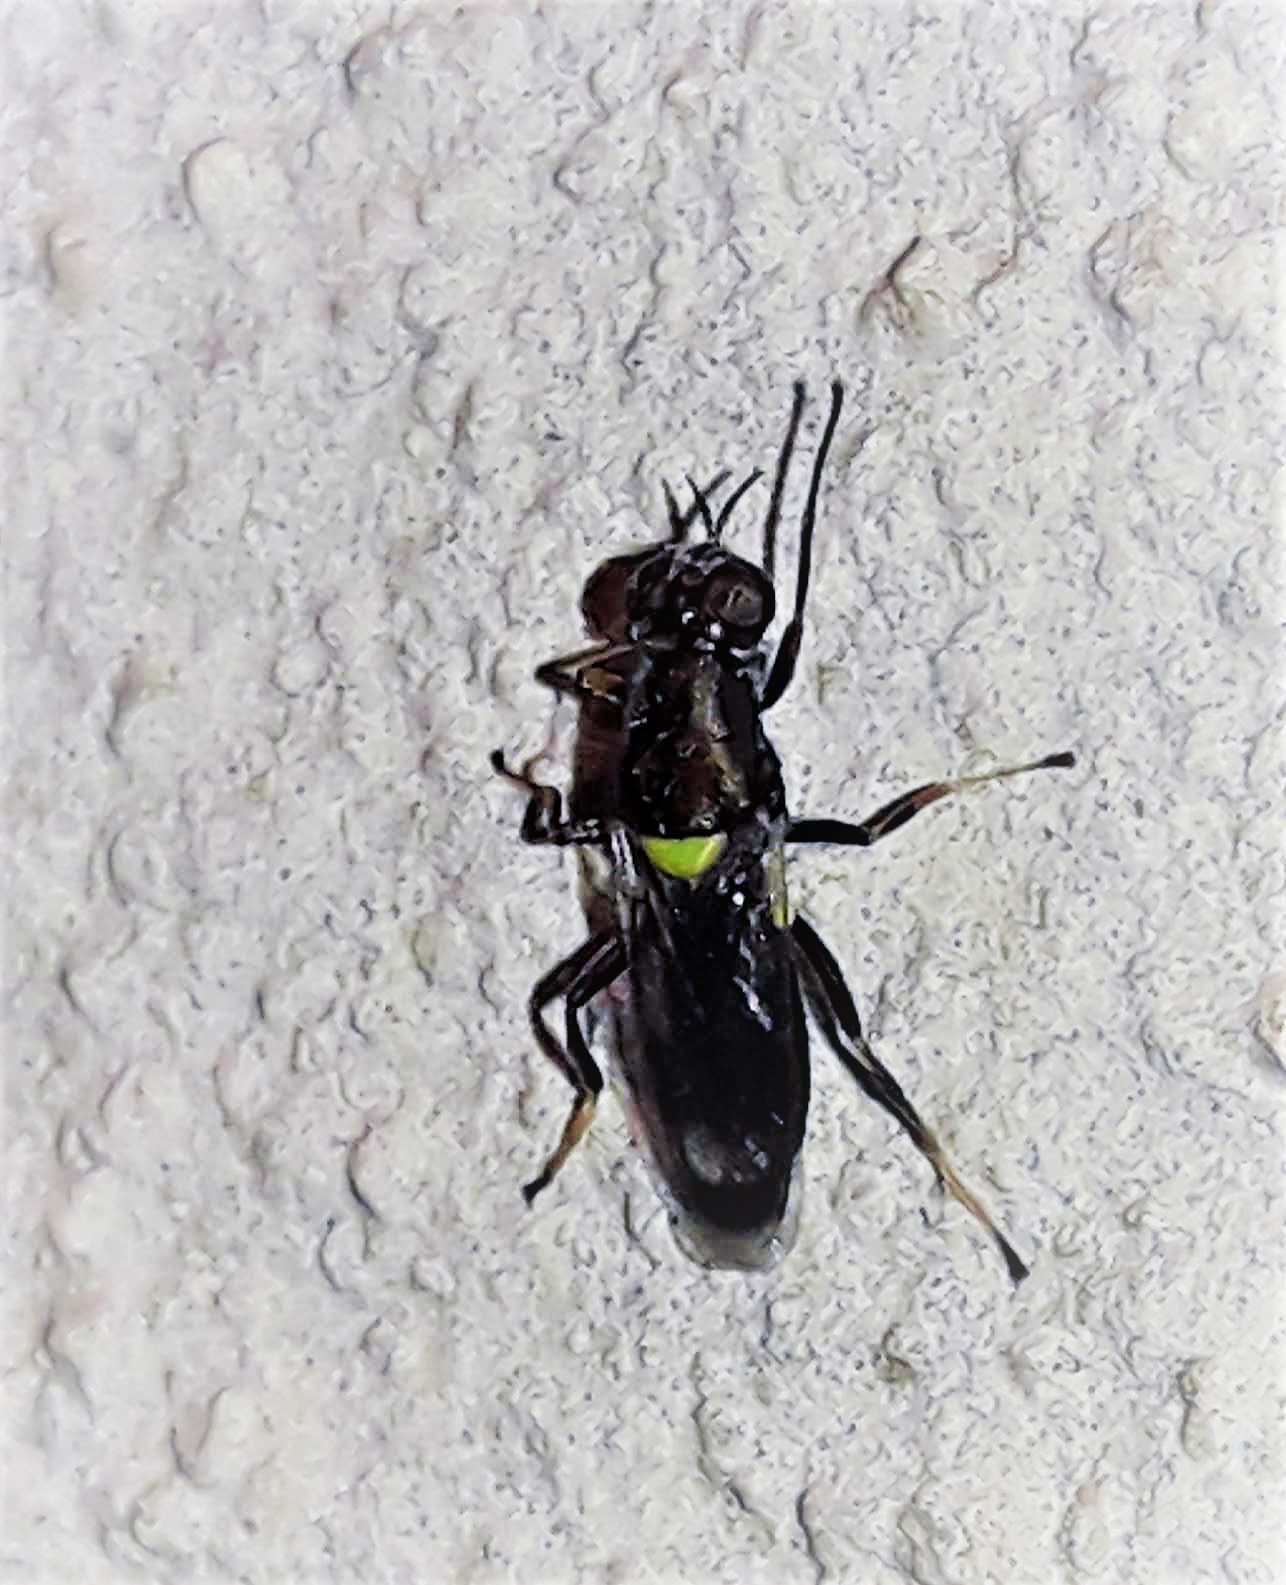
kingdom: Animalia
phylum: Arthropoda
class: Insecta
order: Diptera
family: Stratiomyidae
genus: Myxosargus
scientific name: Myxosargus
